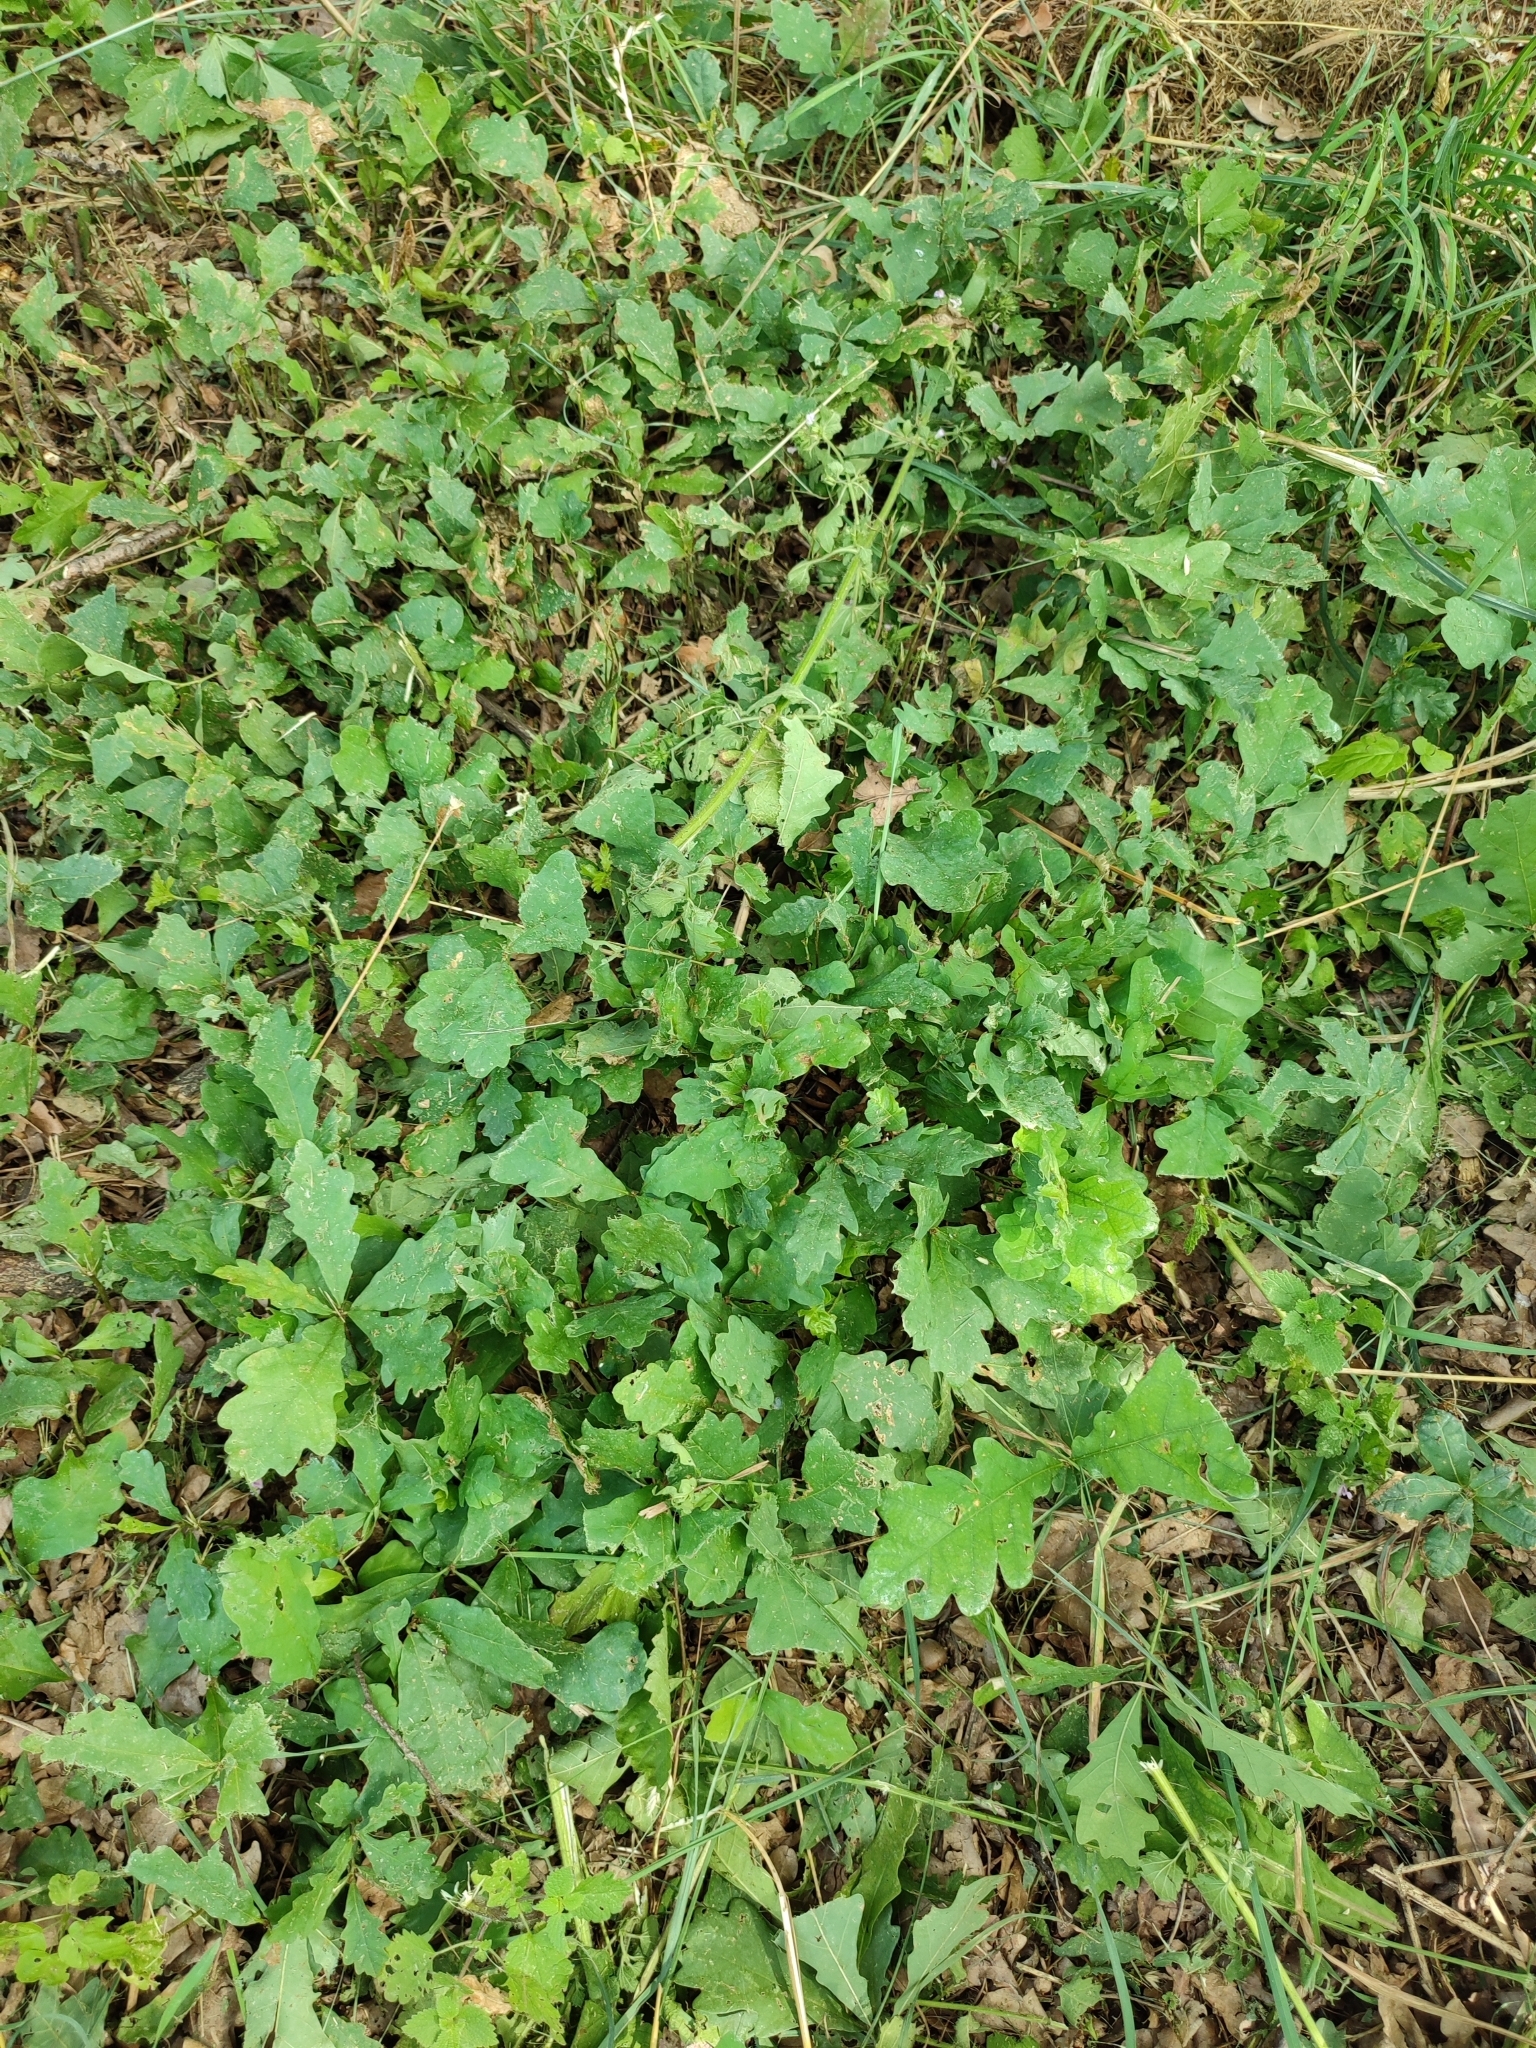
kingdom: Plantae
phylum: Tracheophyta
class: Magnoliopsida
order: Fagales
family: Fagaceae
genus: Quercus
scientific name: Quercus robur
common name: Pedunculate oak
